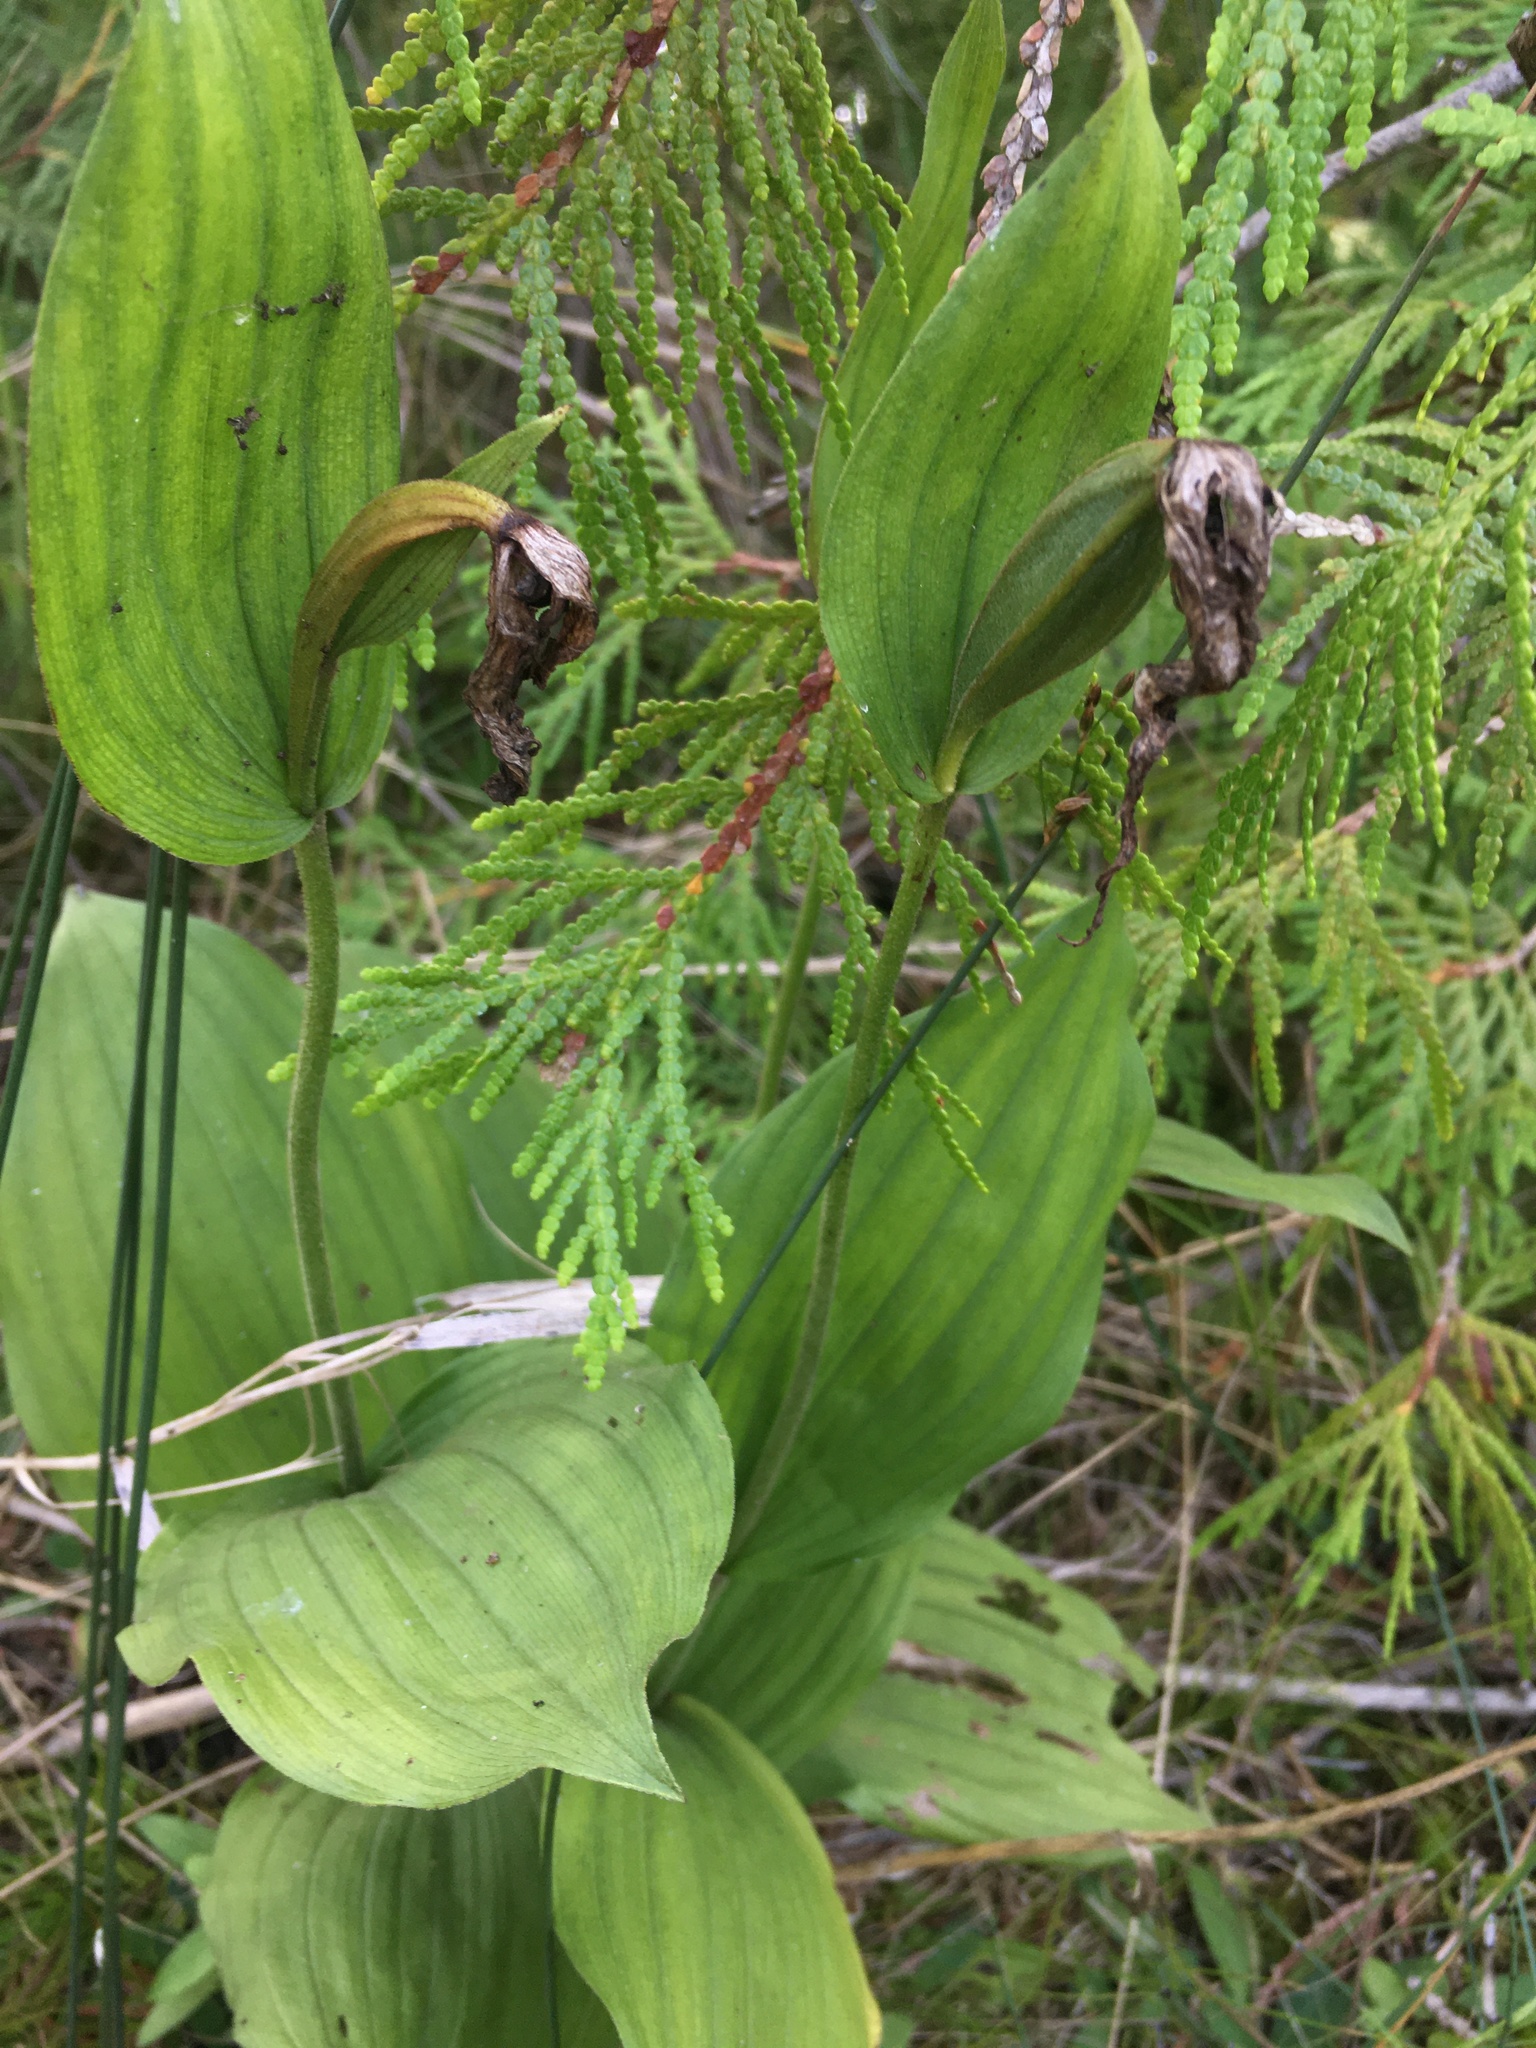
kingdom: Plantae
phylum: Tracheophyta
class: Liliopsida
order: Asparagales
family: Orchidaceae
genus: Cypripedium
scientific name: Cypripedium parviflorum
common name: American yellow lady's-slipper
